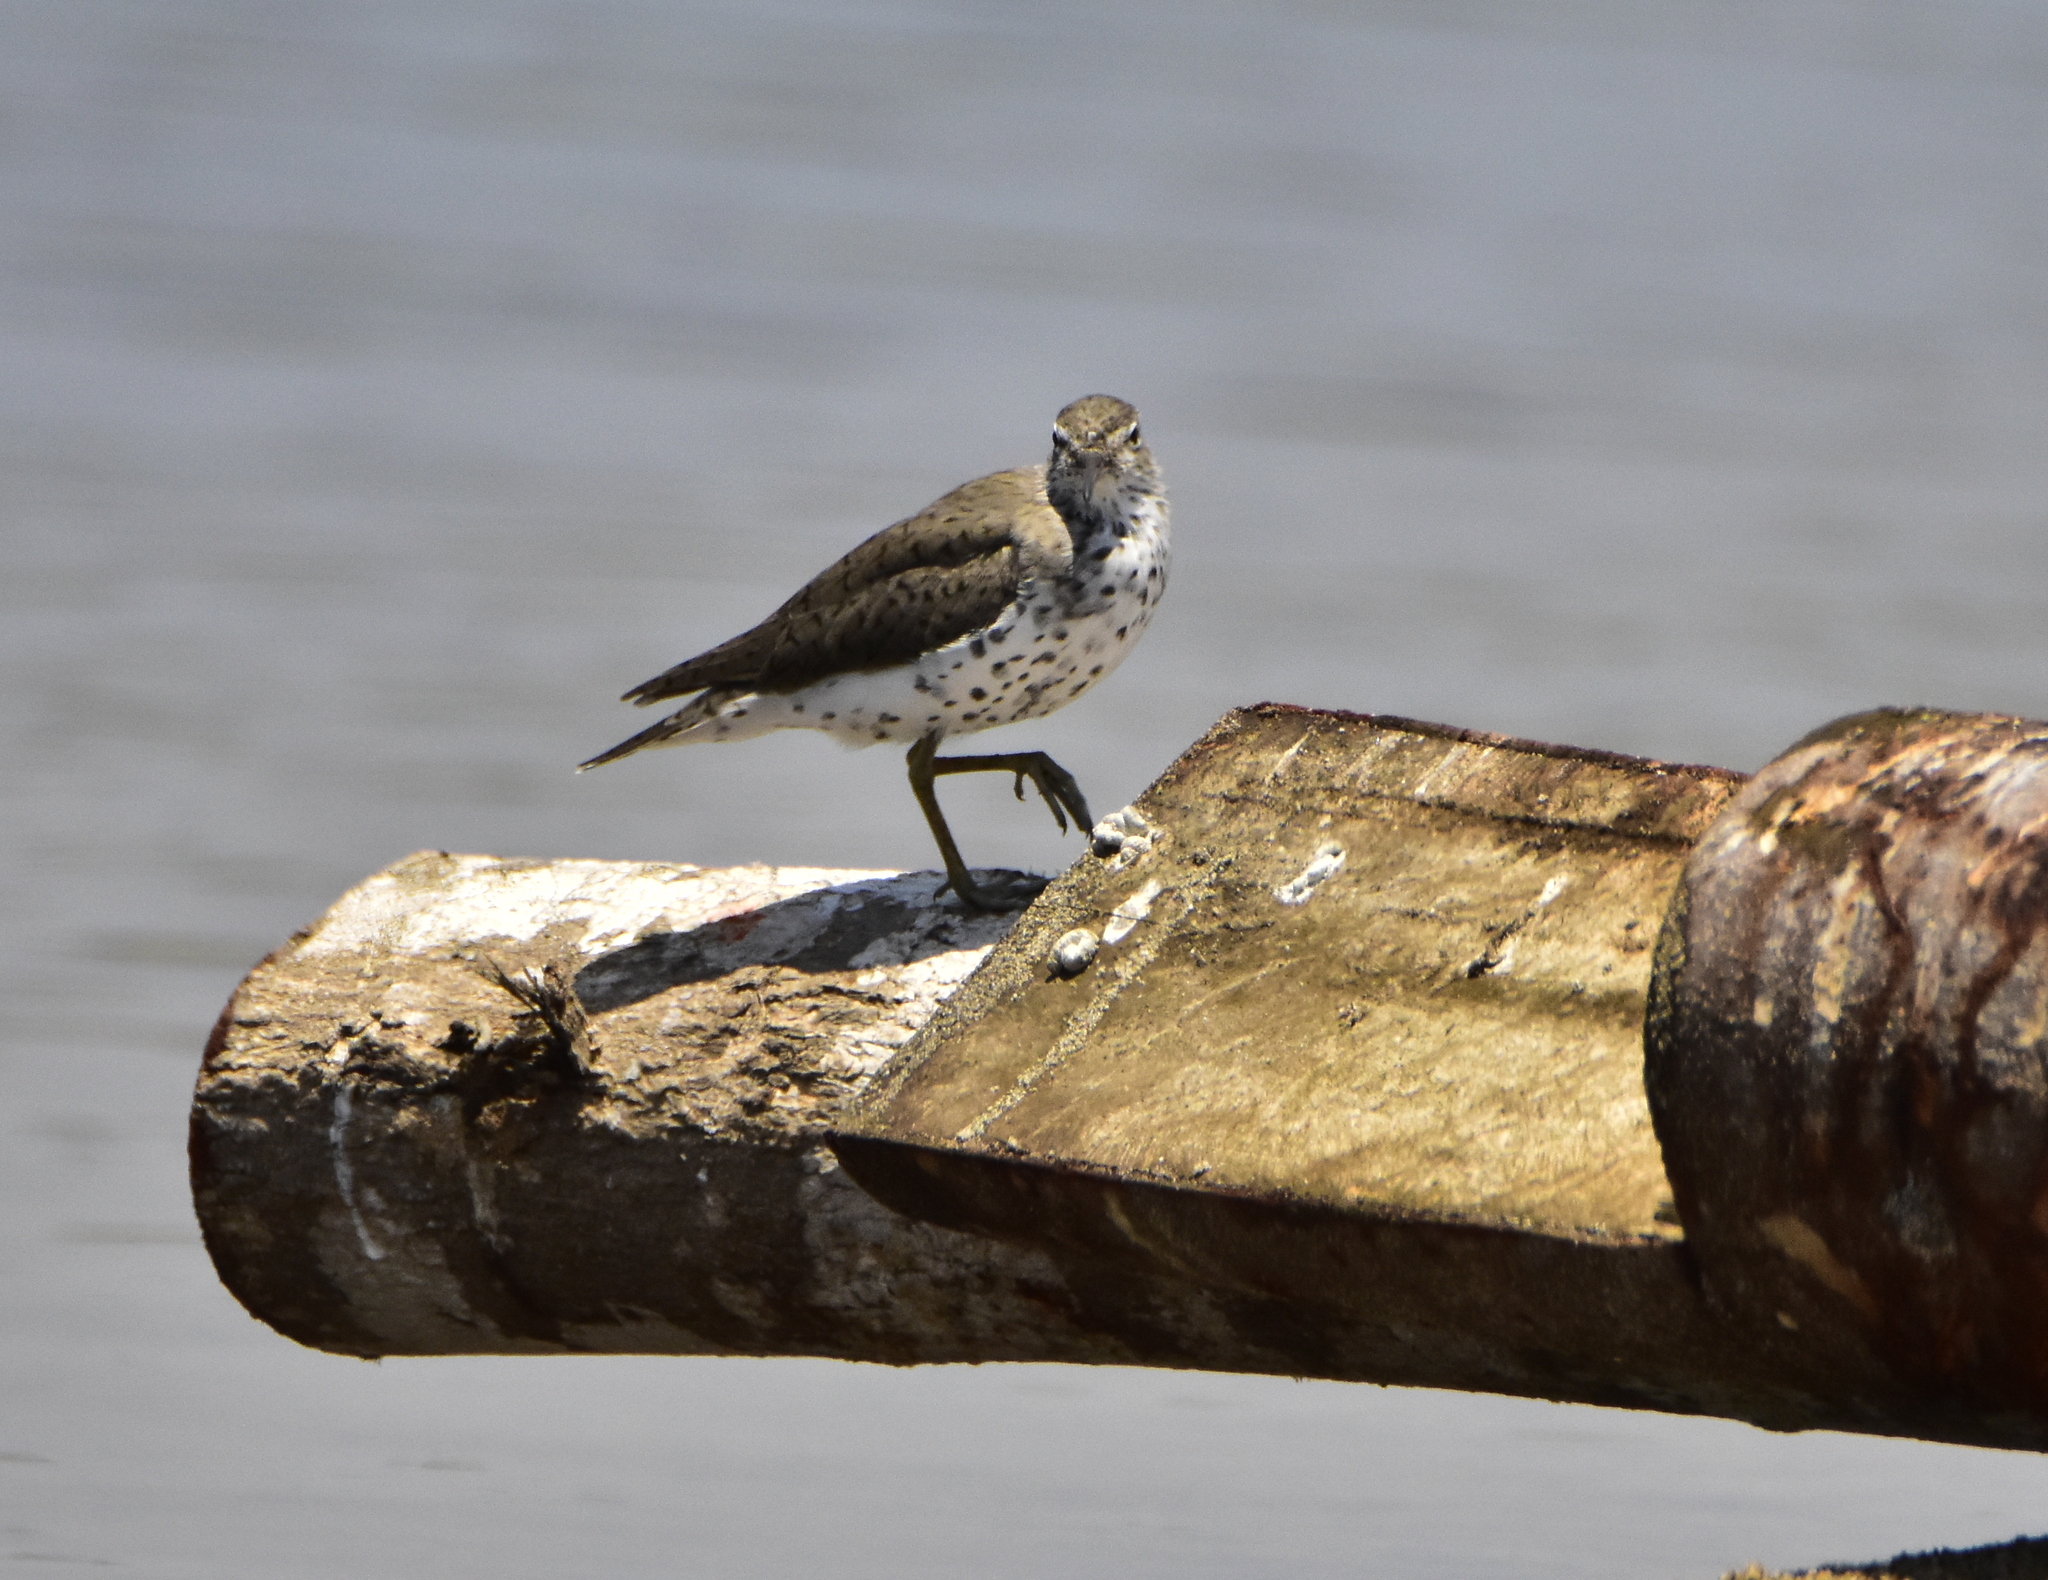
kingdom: Animalia
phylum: Chordata
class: Aves
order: Charadriiformes
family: Scolopacidae
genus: Actitis
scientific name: Actitis macularius
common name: Spotted sandpiper
